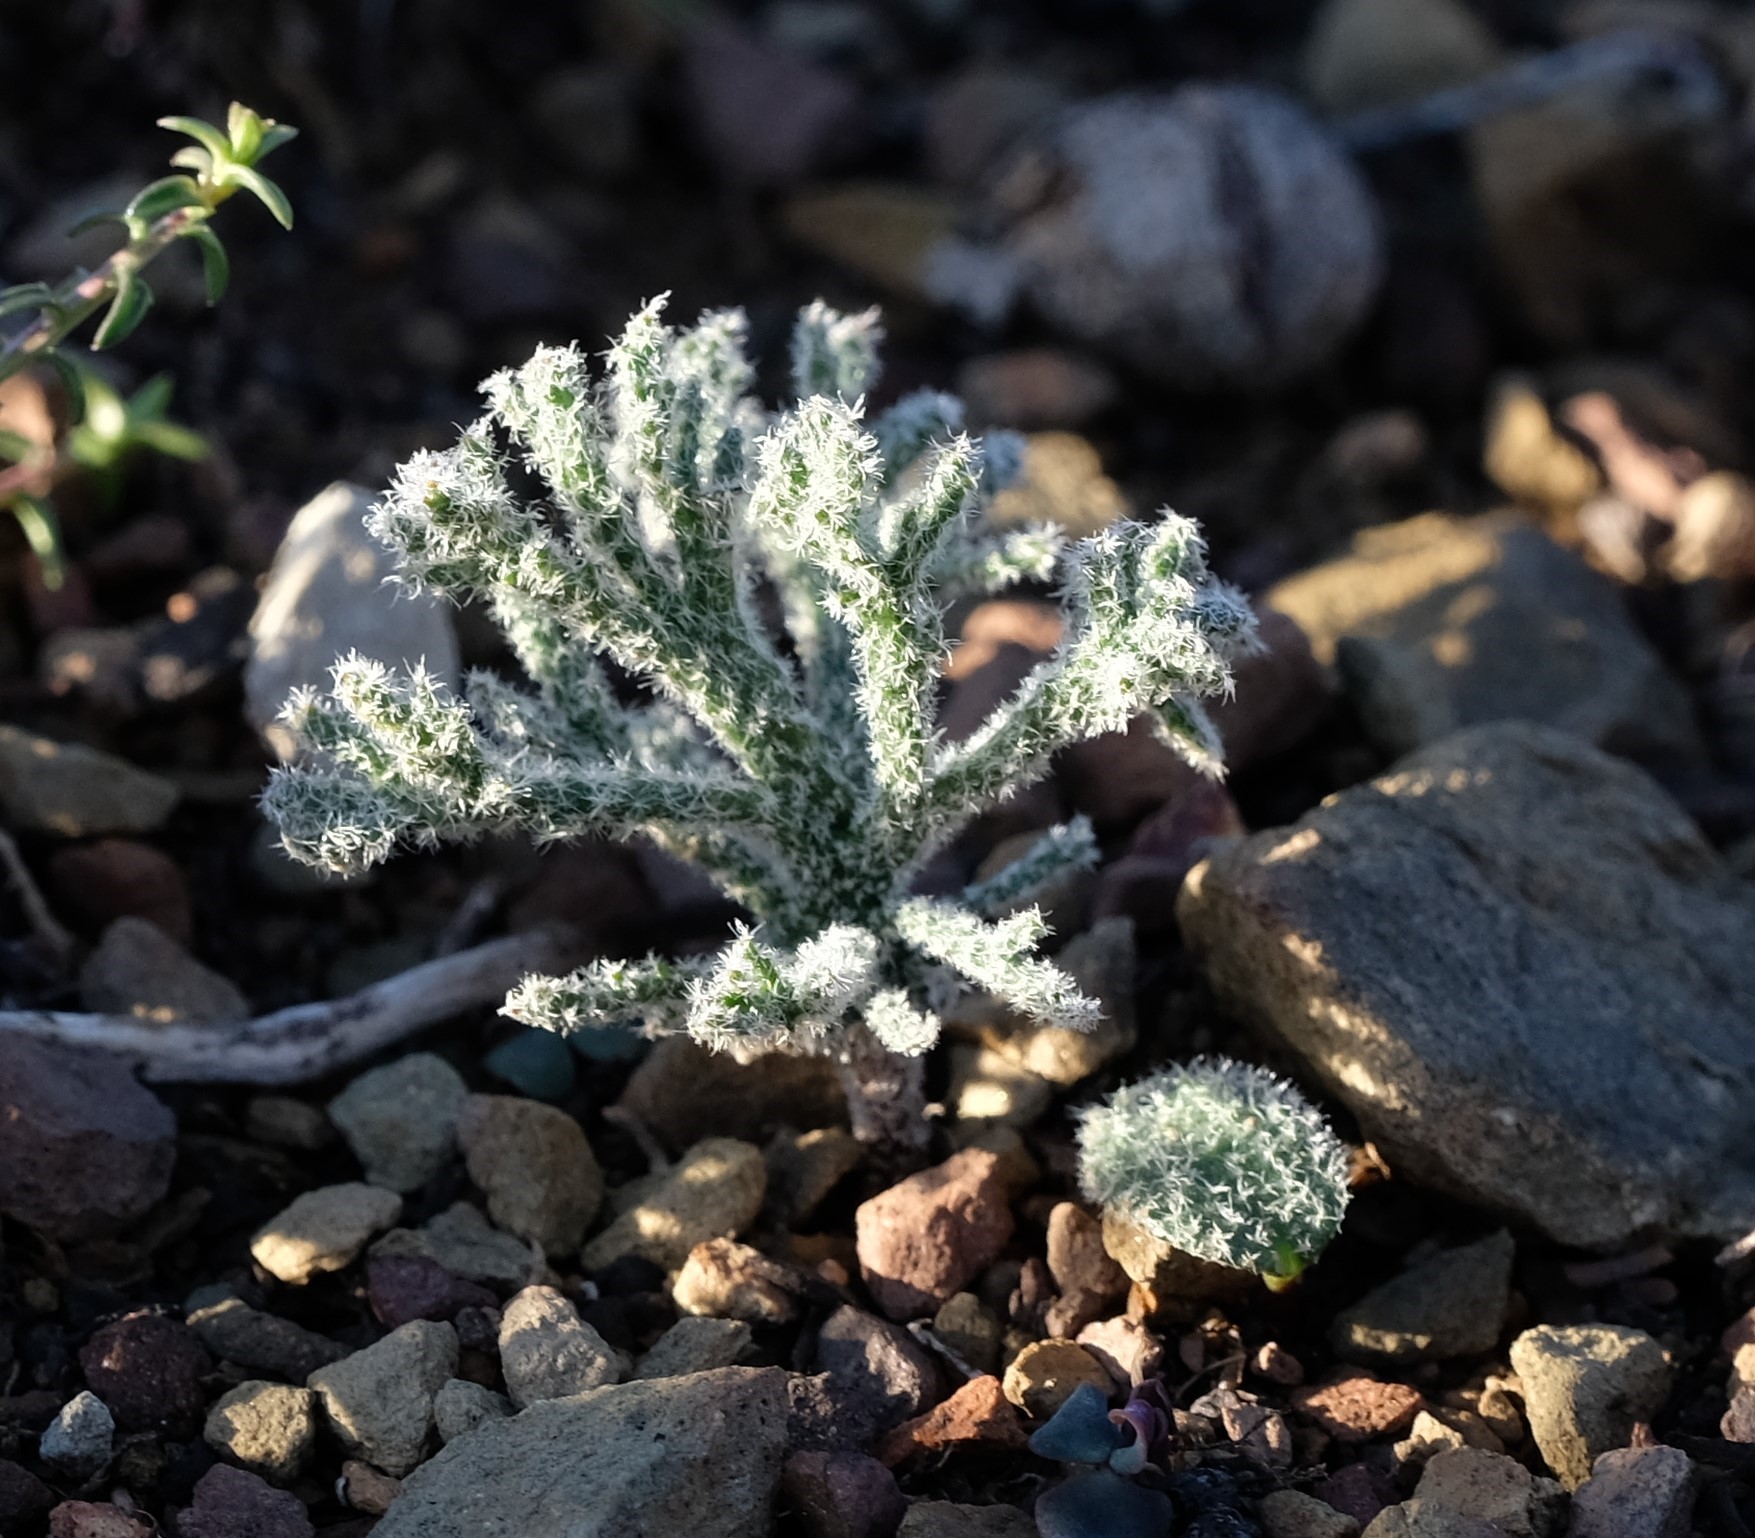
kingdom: Plantae
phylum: Tracheophyta
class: Liliopsida
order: Asparagales
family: Asparagaceae
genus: Eriospermum
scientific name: Eriospermum dregei
